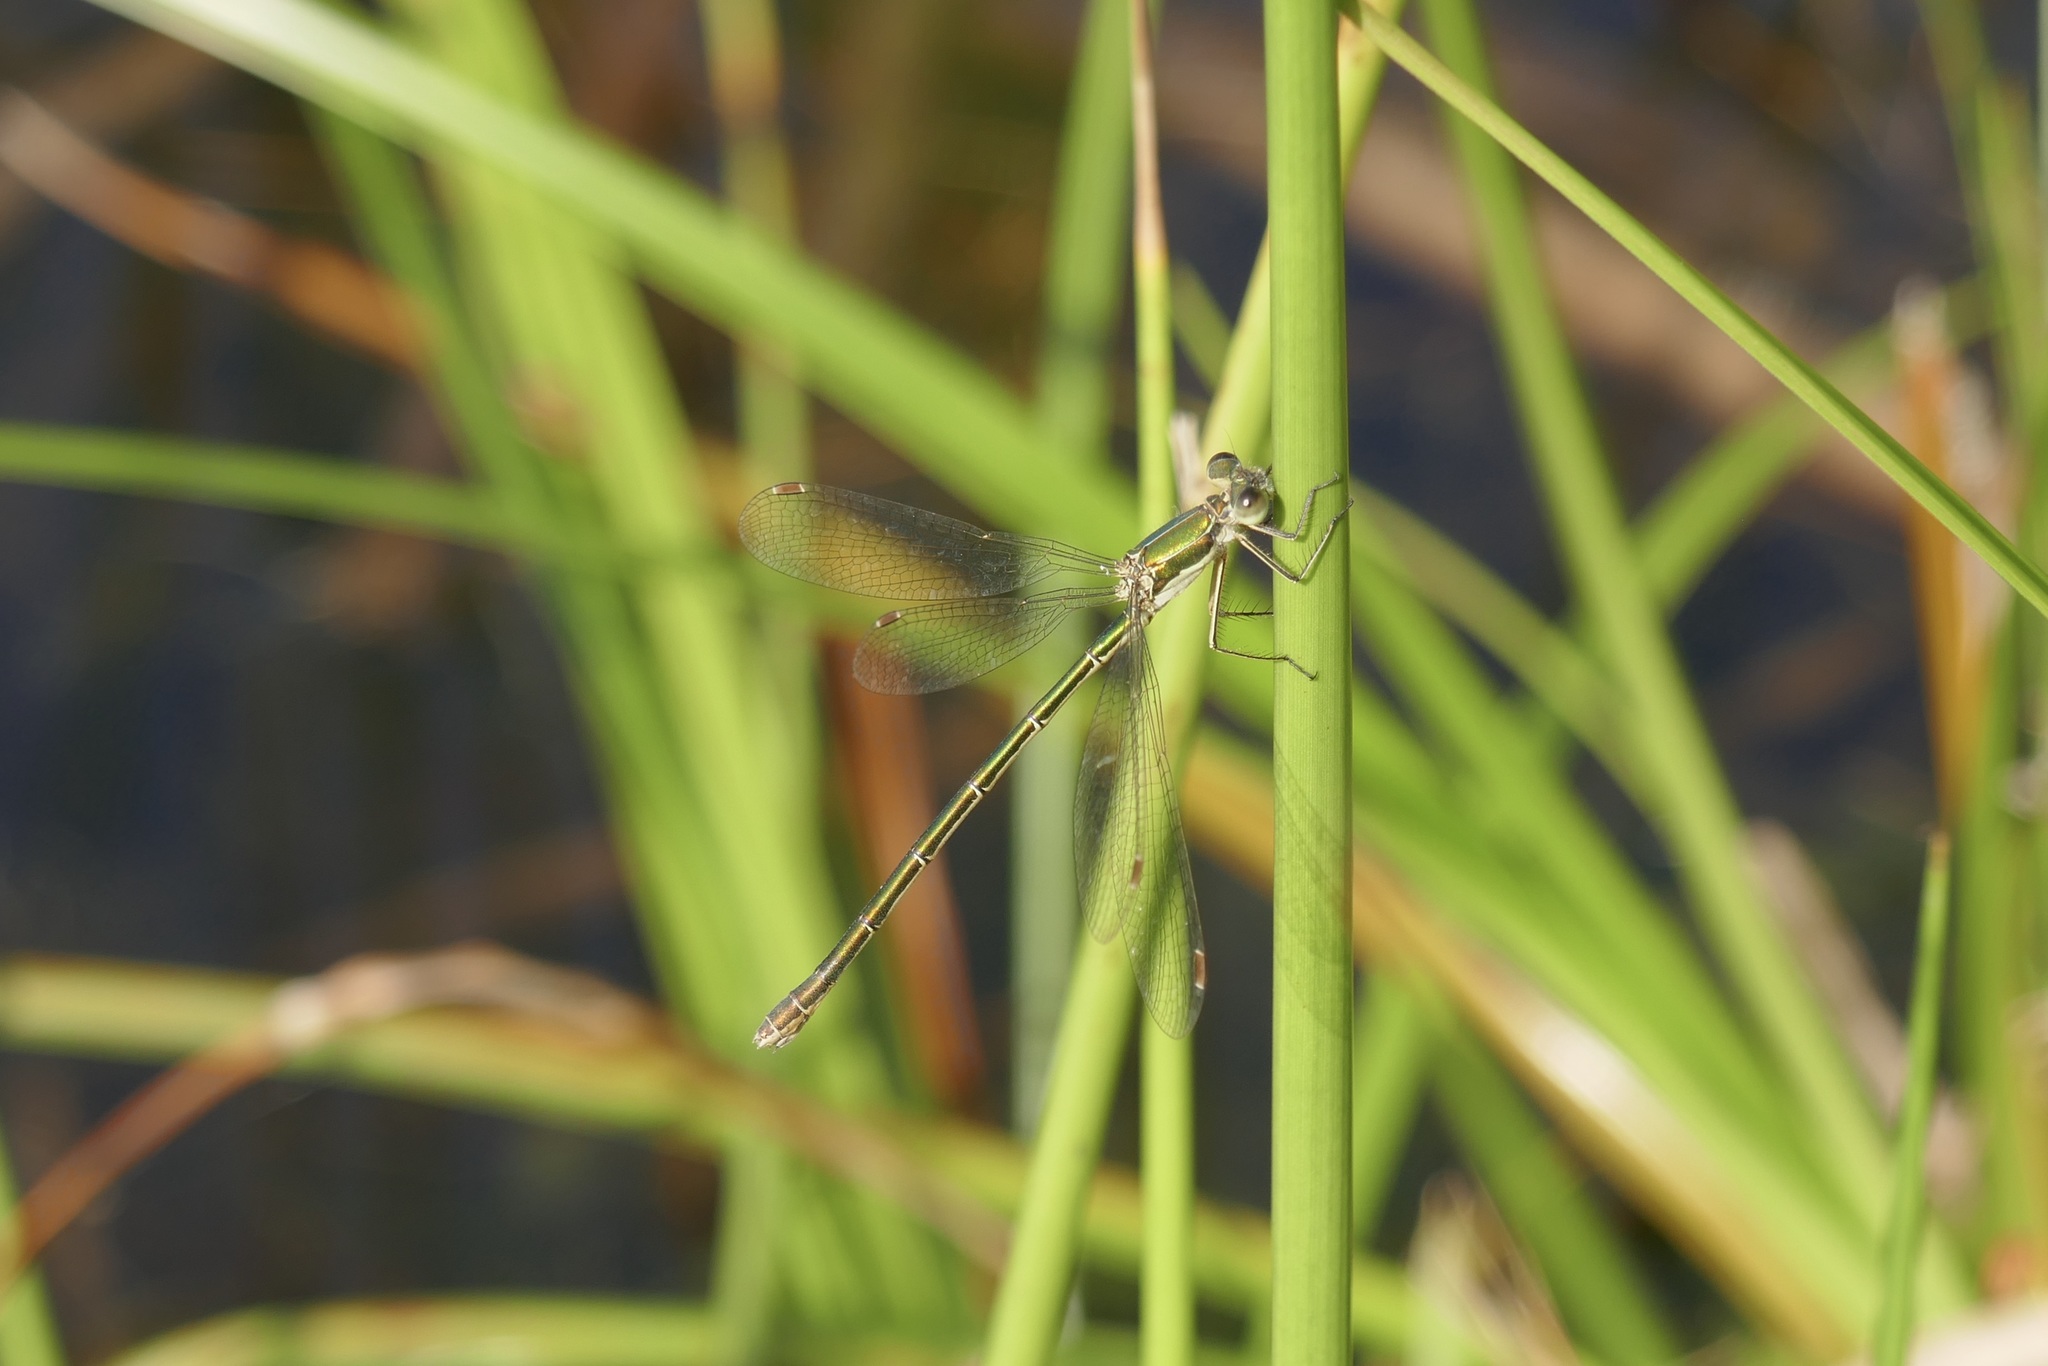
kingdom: Animalia
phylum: Arthropoda
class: Insecta
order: Odonata
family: Lestidae
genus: Lestes
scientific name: Lestes virens
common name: Small emerald spreadwing
